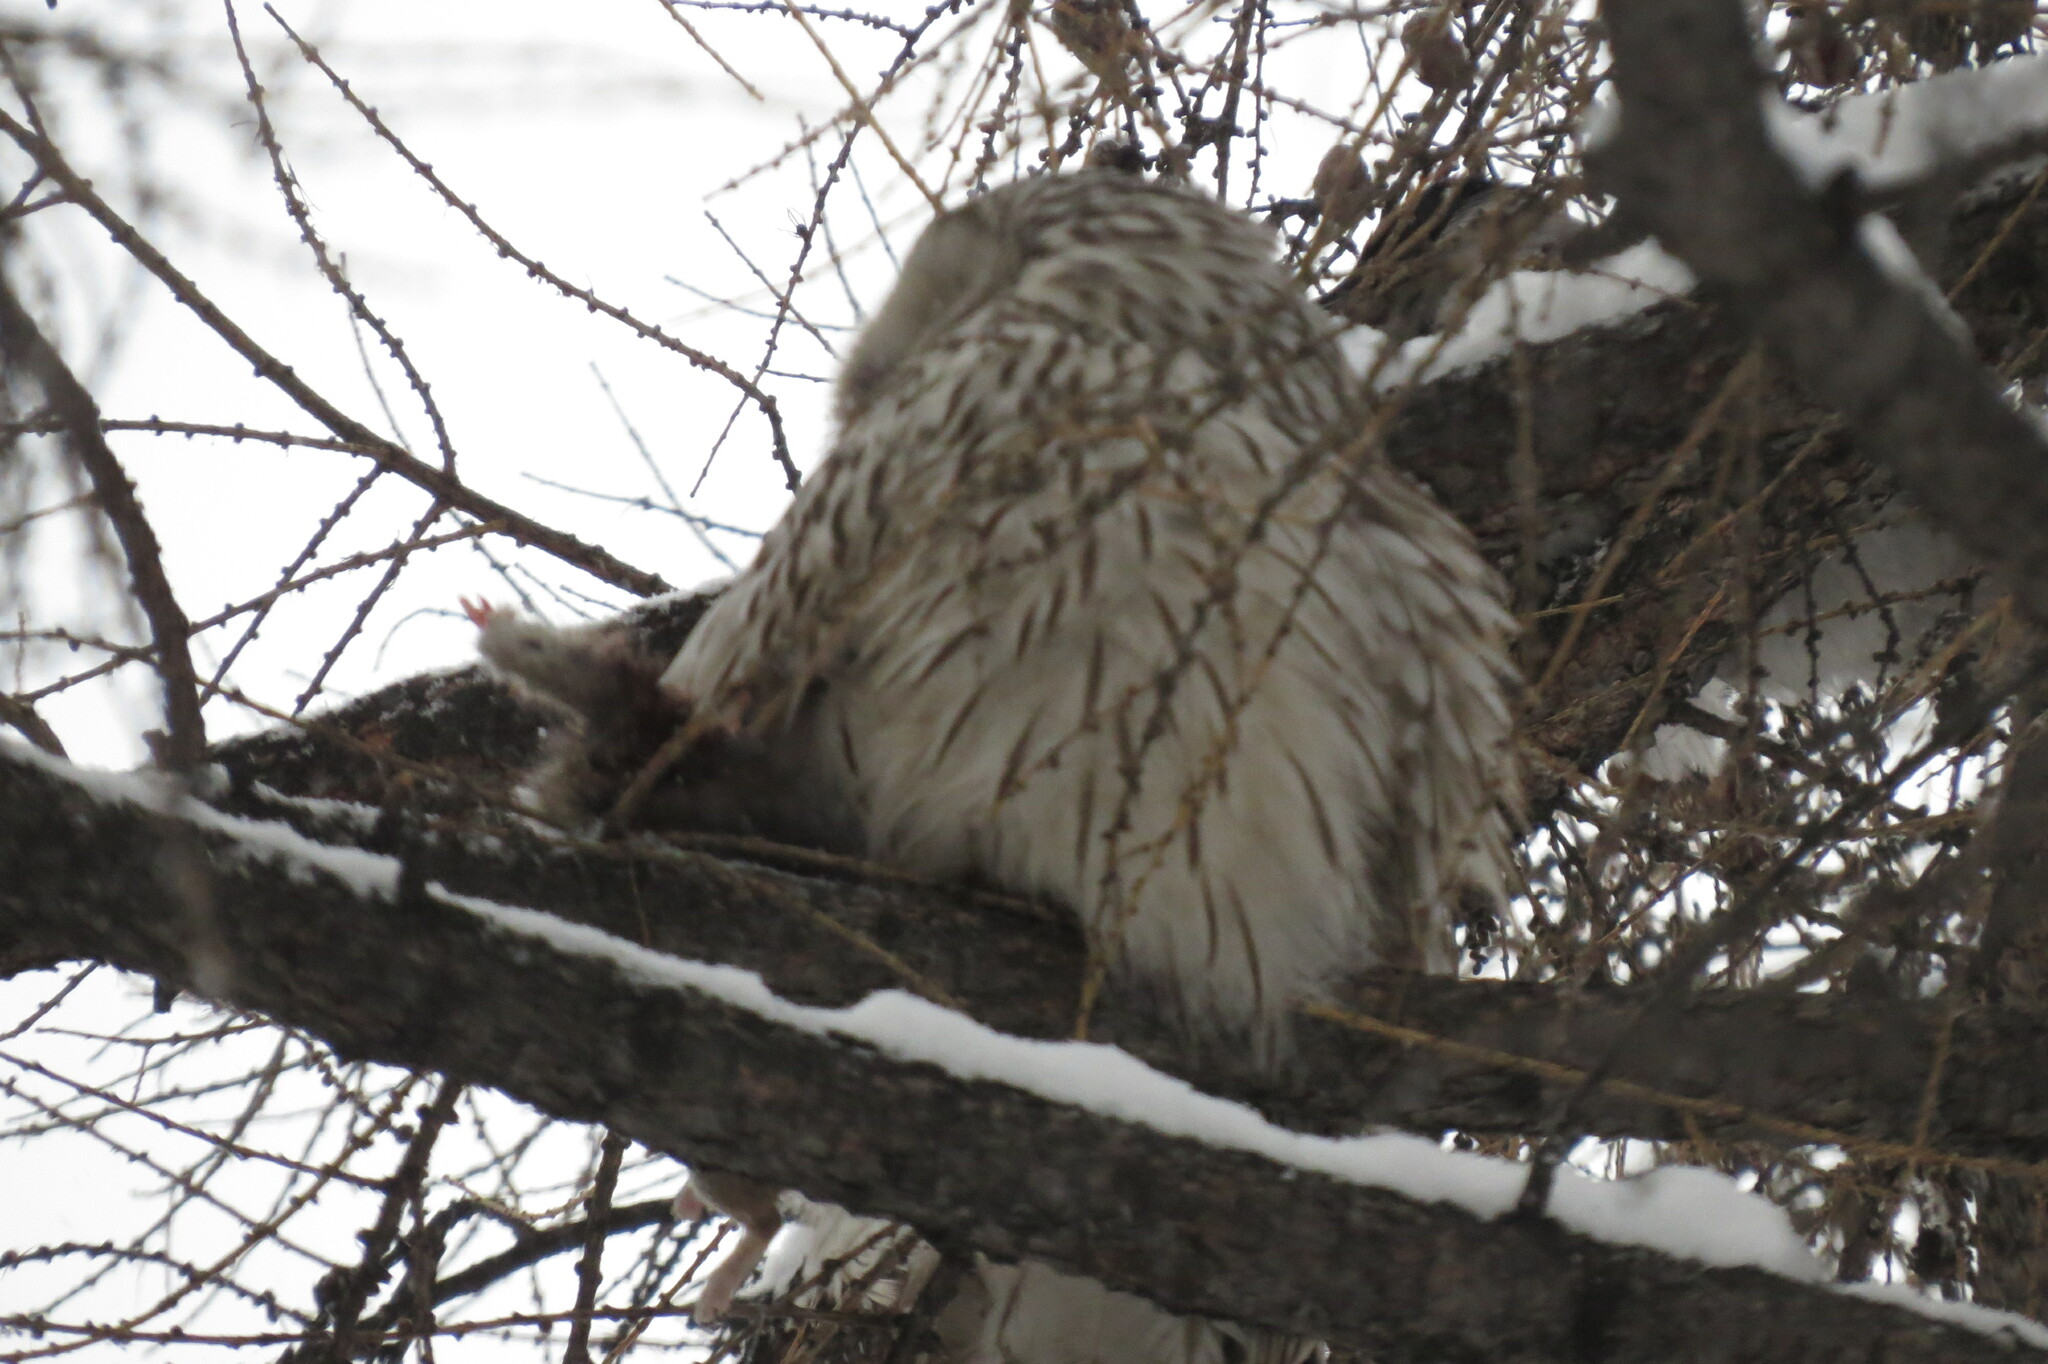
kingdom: Animalia
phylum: Chordata
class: Aves
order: Strigiformes
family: Strigidae
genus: Strix
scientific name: Strix uralensis
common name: Ural owl
